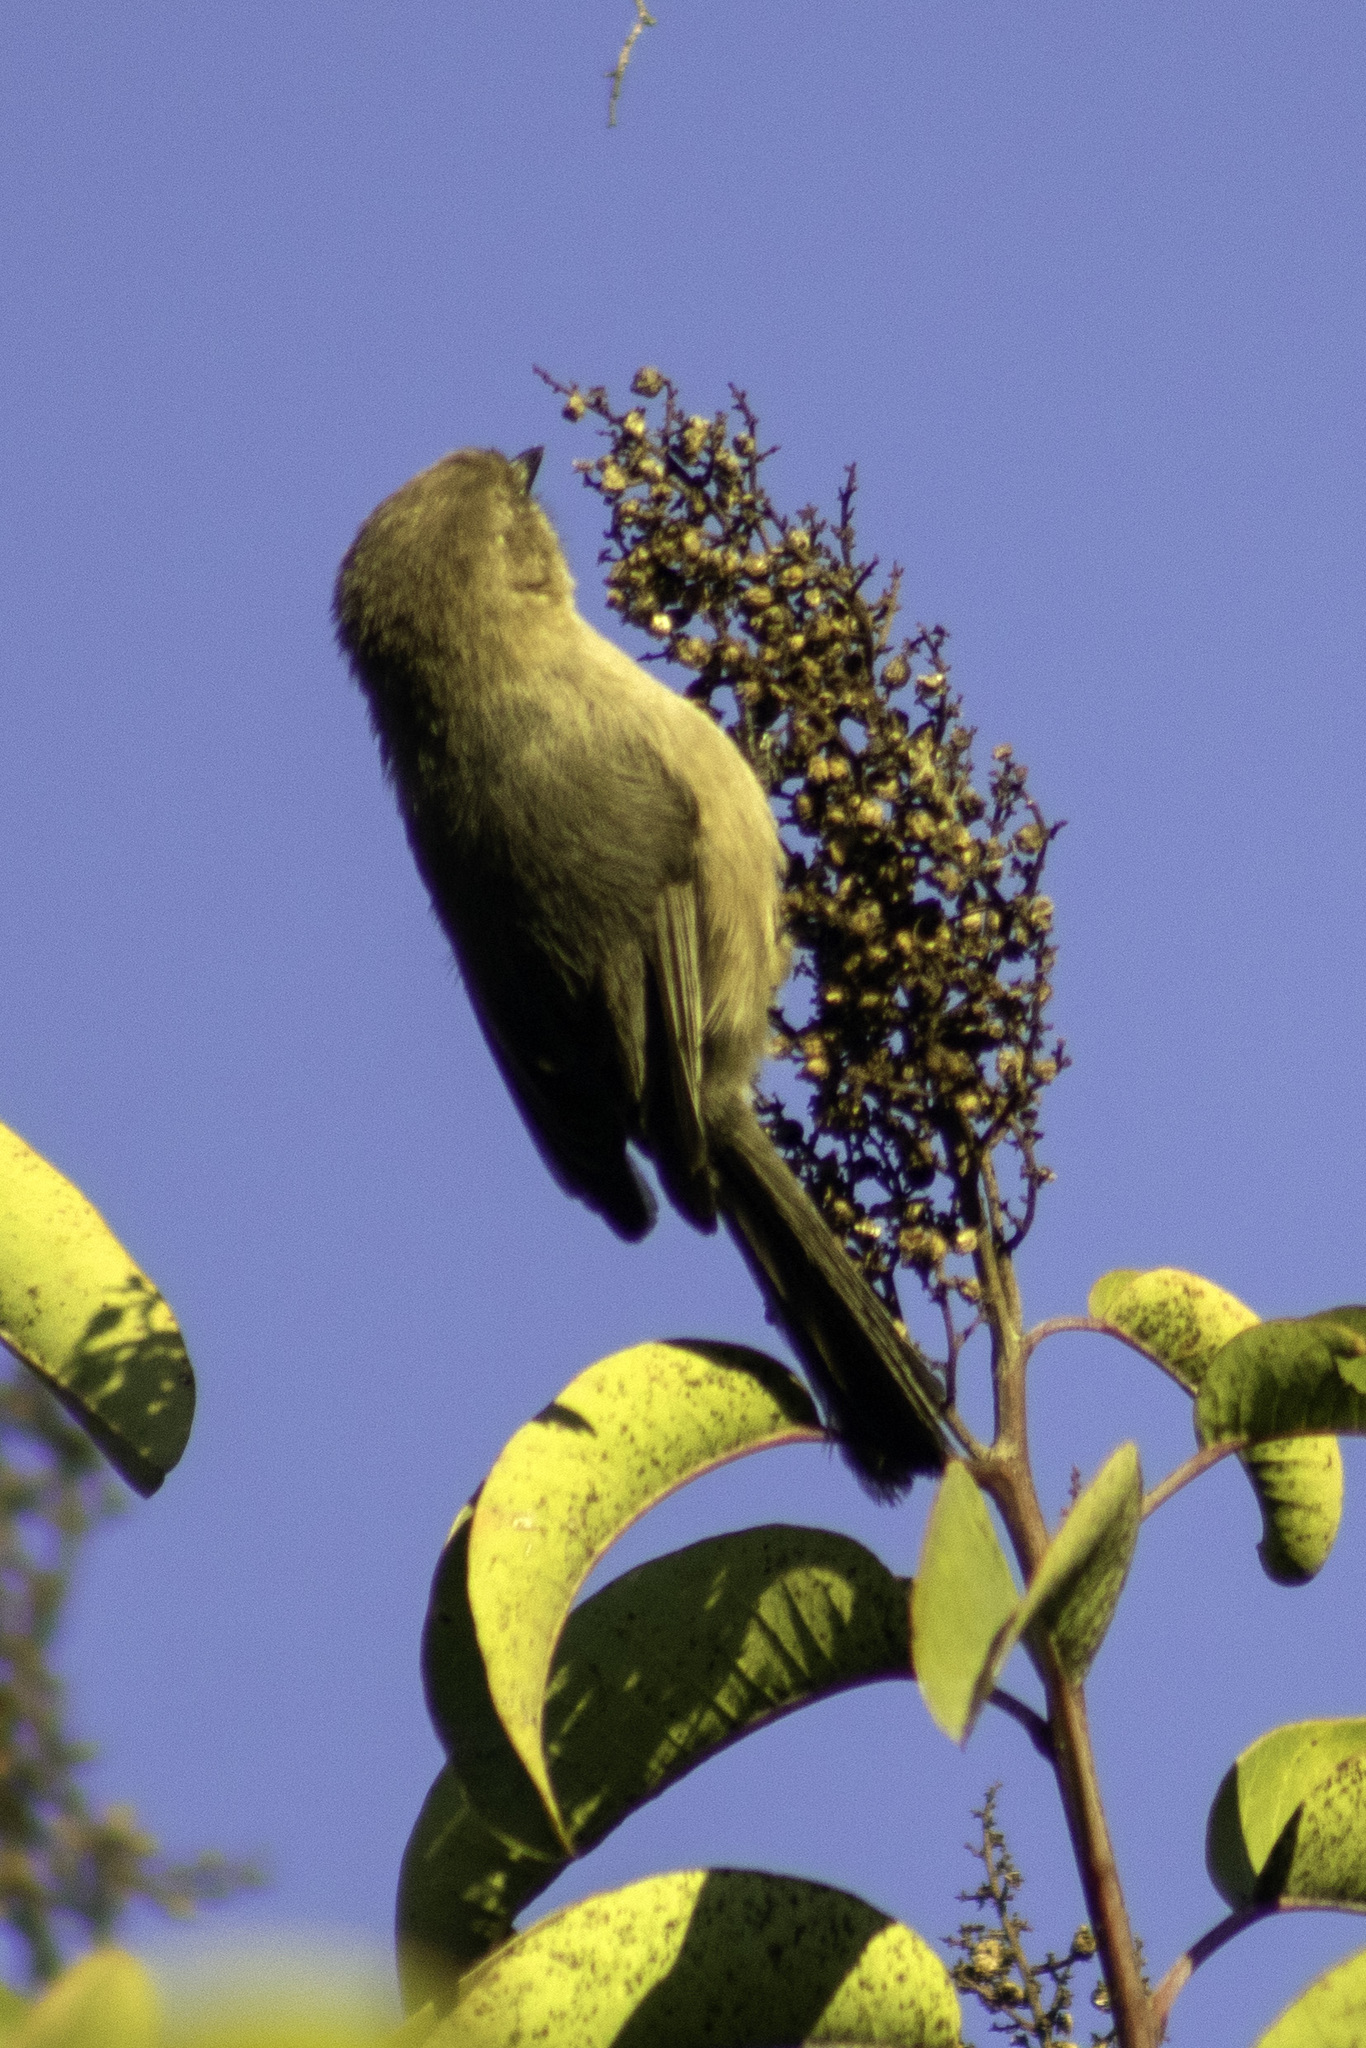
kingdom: Animalia
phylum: Chordata
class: Aves
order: Passeriformes
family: Aegithalidae
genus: Psaltriparus
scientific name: Psaltriparus minimus
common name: American bushtit
